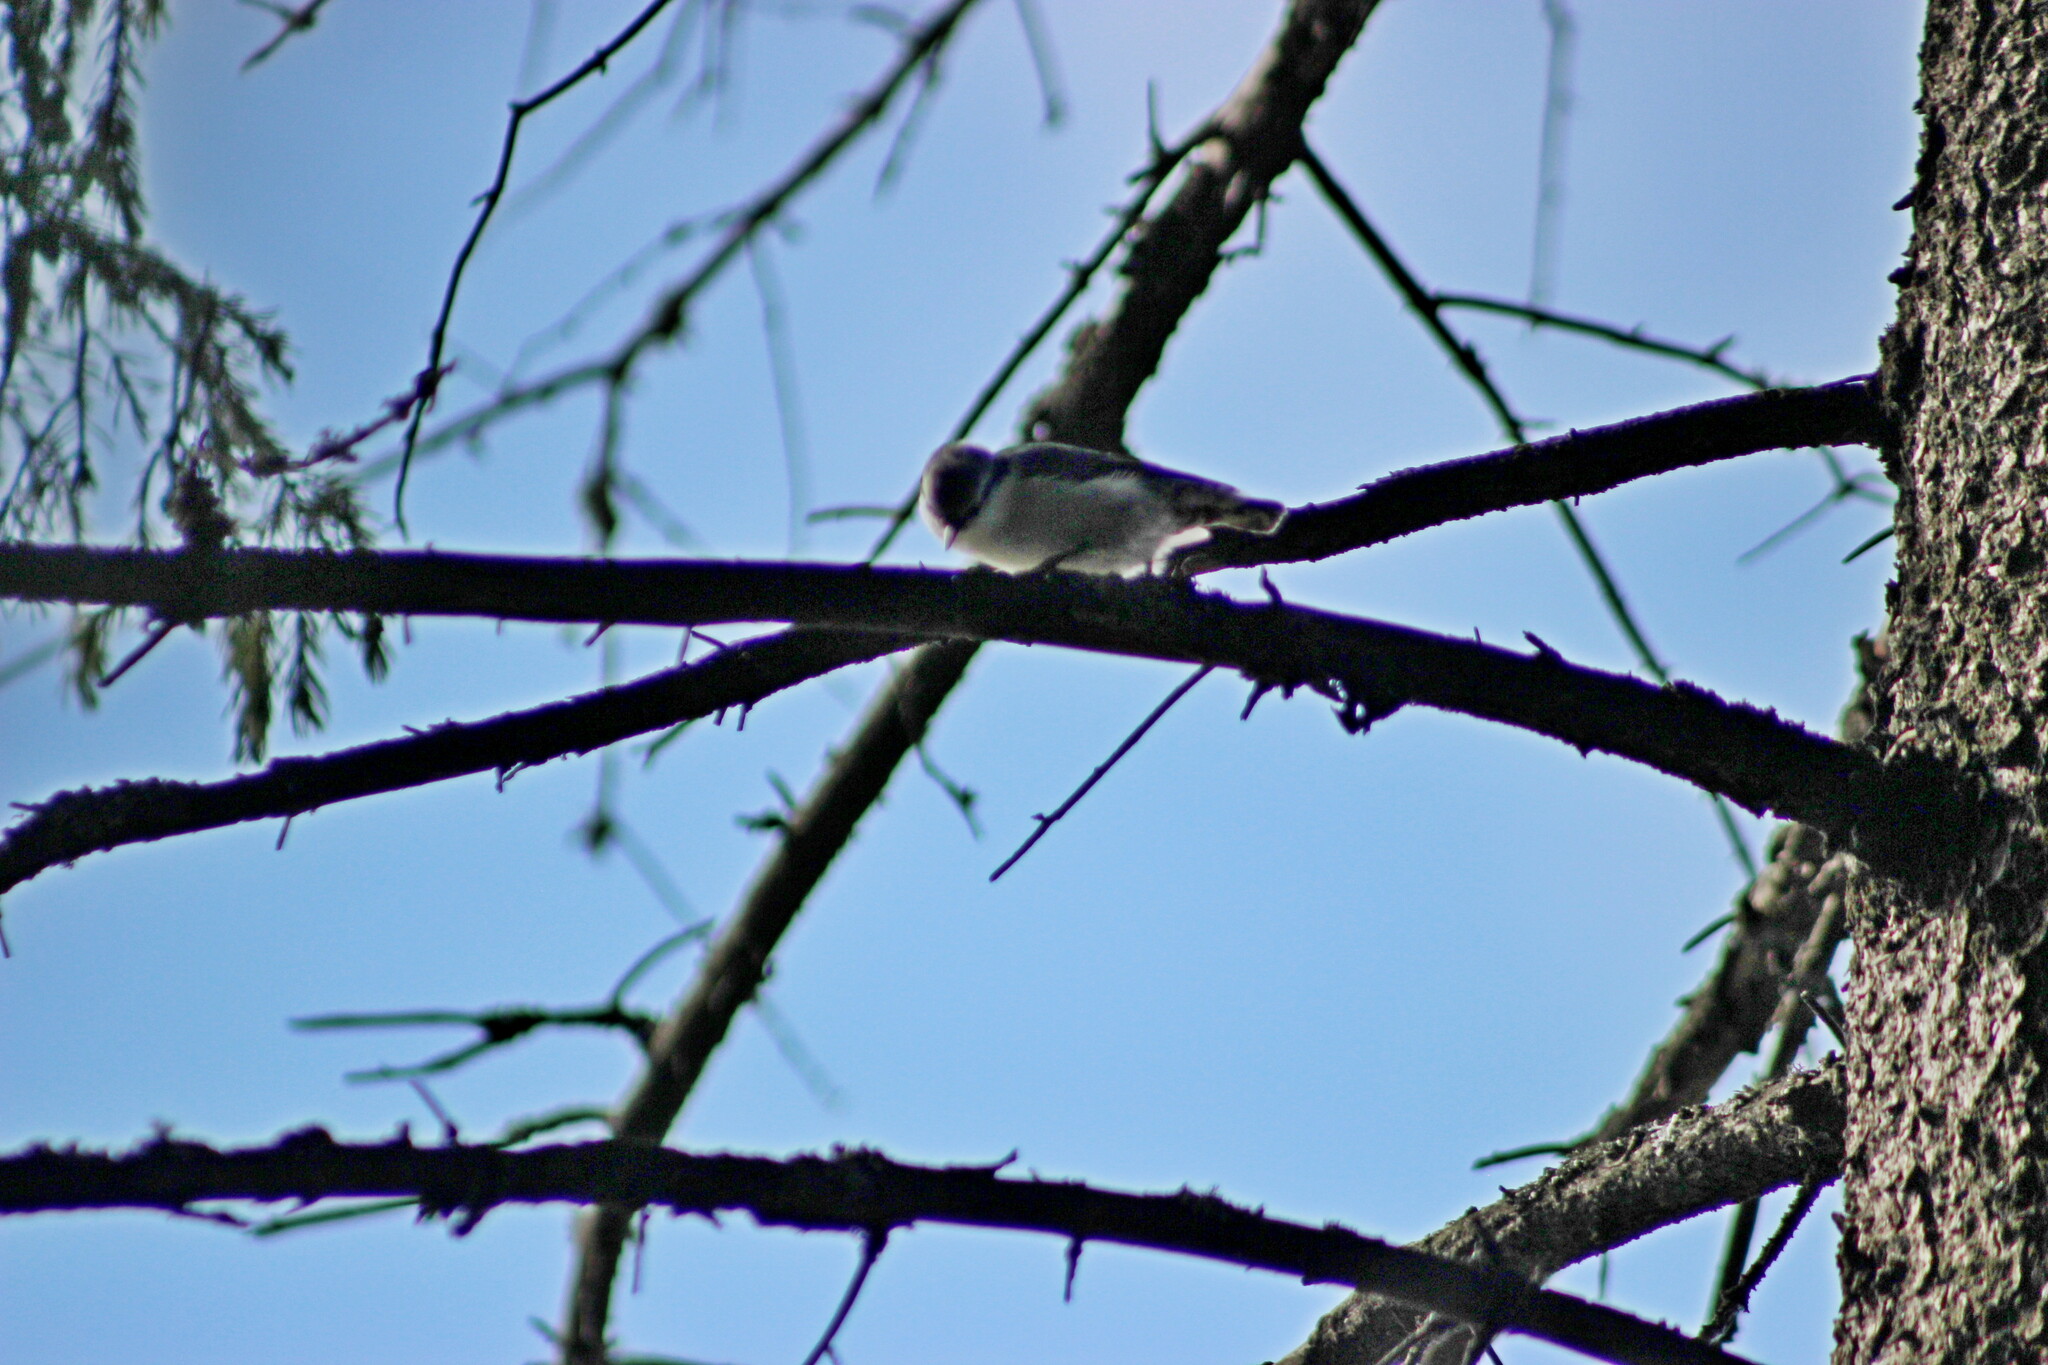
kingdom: Animalia
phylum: Chordata
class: Aves
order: Passeriformes
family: Sittidae
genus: Sitta
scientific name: Sitta europaea
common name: Eurasian nuthatch
